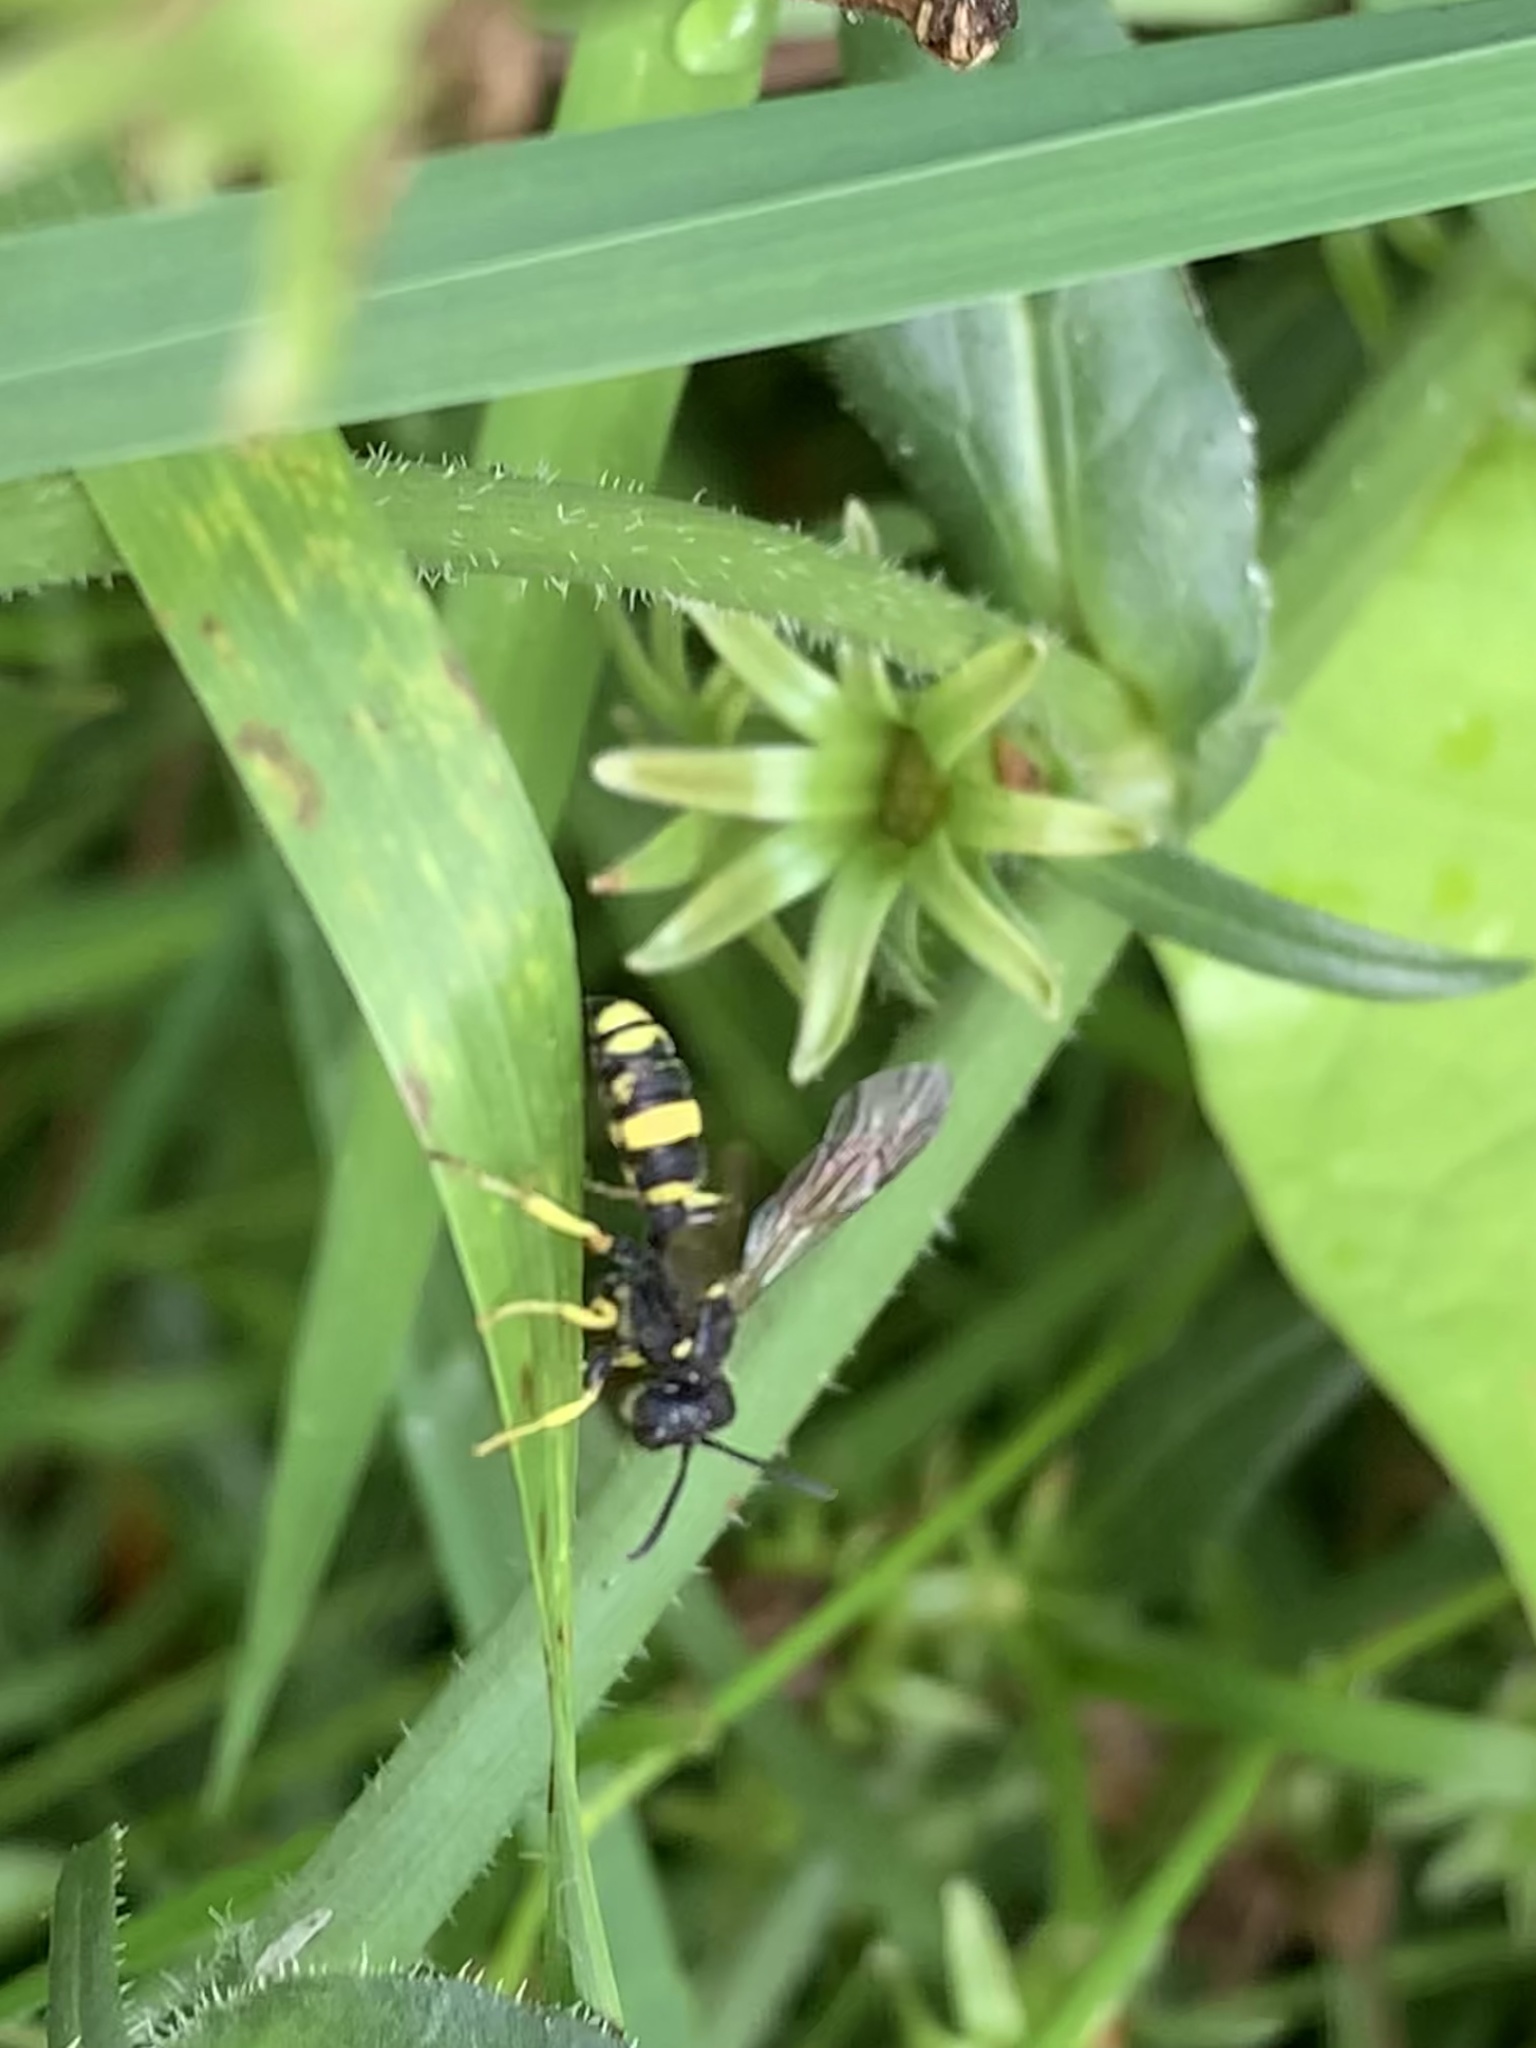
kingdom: Animalia
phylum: Arthropoda
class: Insecta
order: Hymenoptera
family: Crabronidae
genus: Cerceris
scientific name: Cerceris rybyensis
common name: Ornate tailed digger wasp
